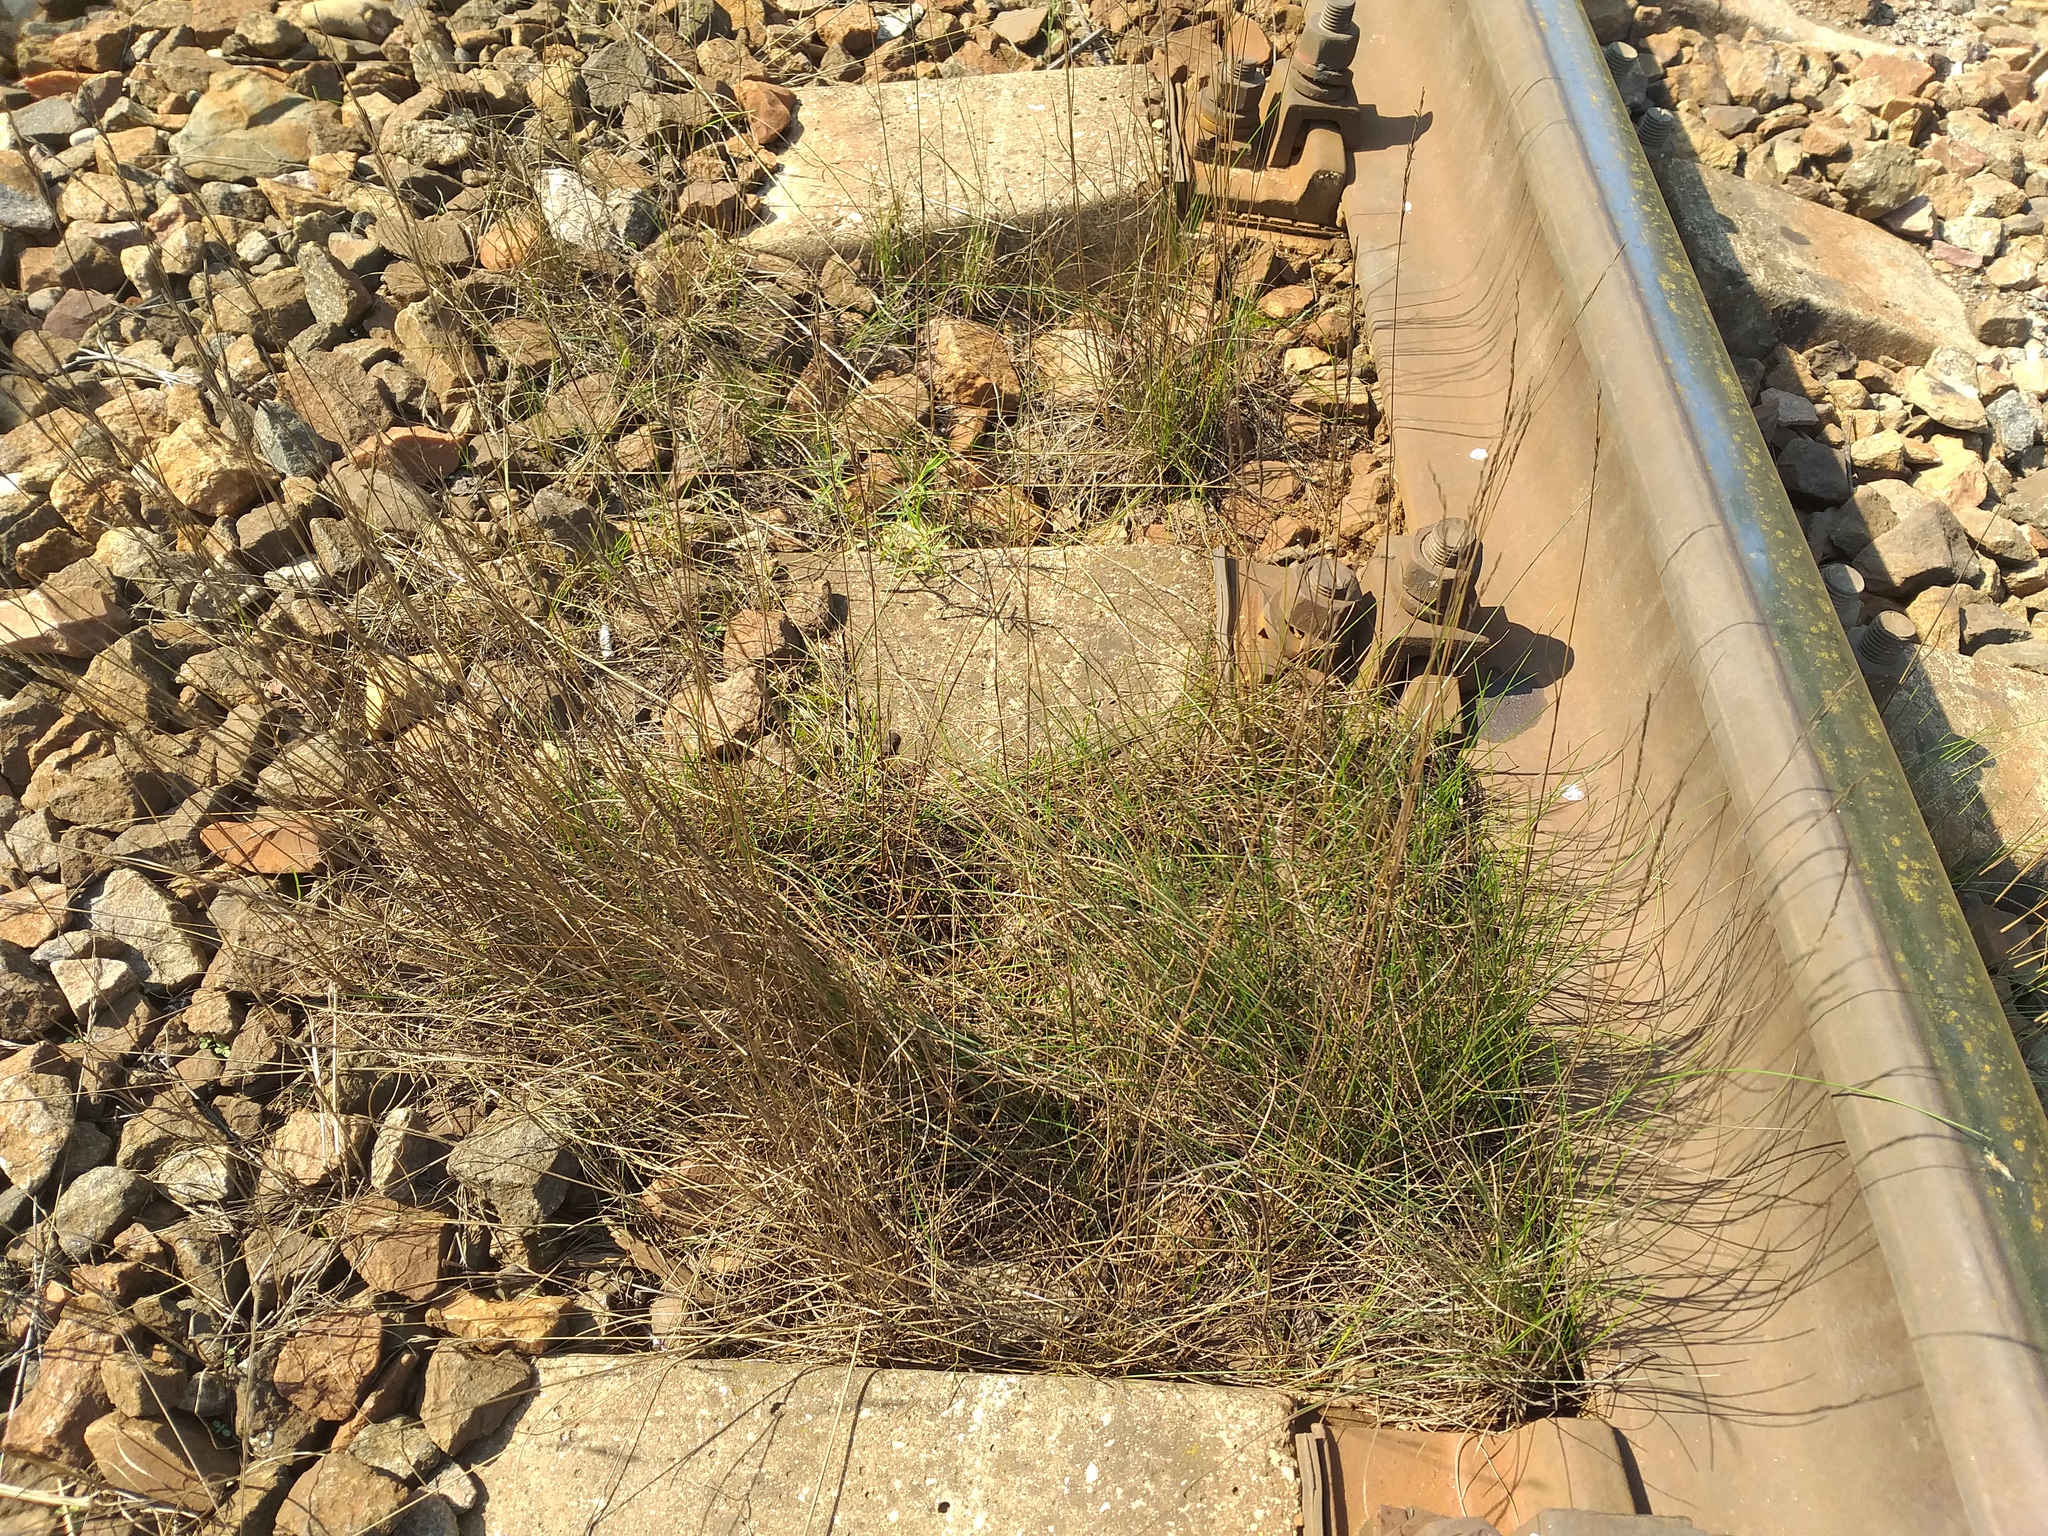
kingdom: Plantae
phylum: Tracheophyta
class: Liliopsida
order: Poales
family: Poaceae
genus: Festuca
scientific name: Festuca rubra
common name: Red fescue
